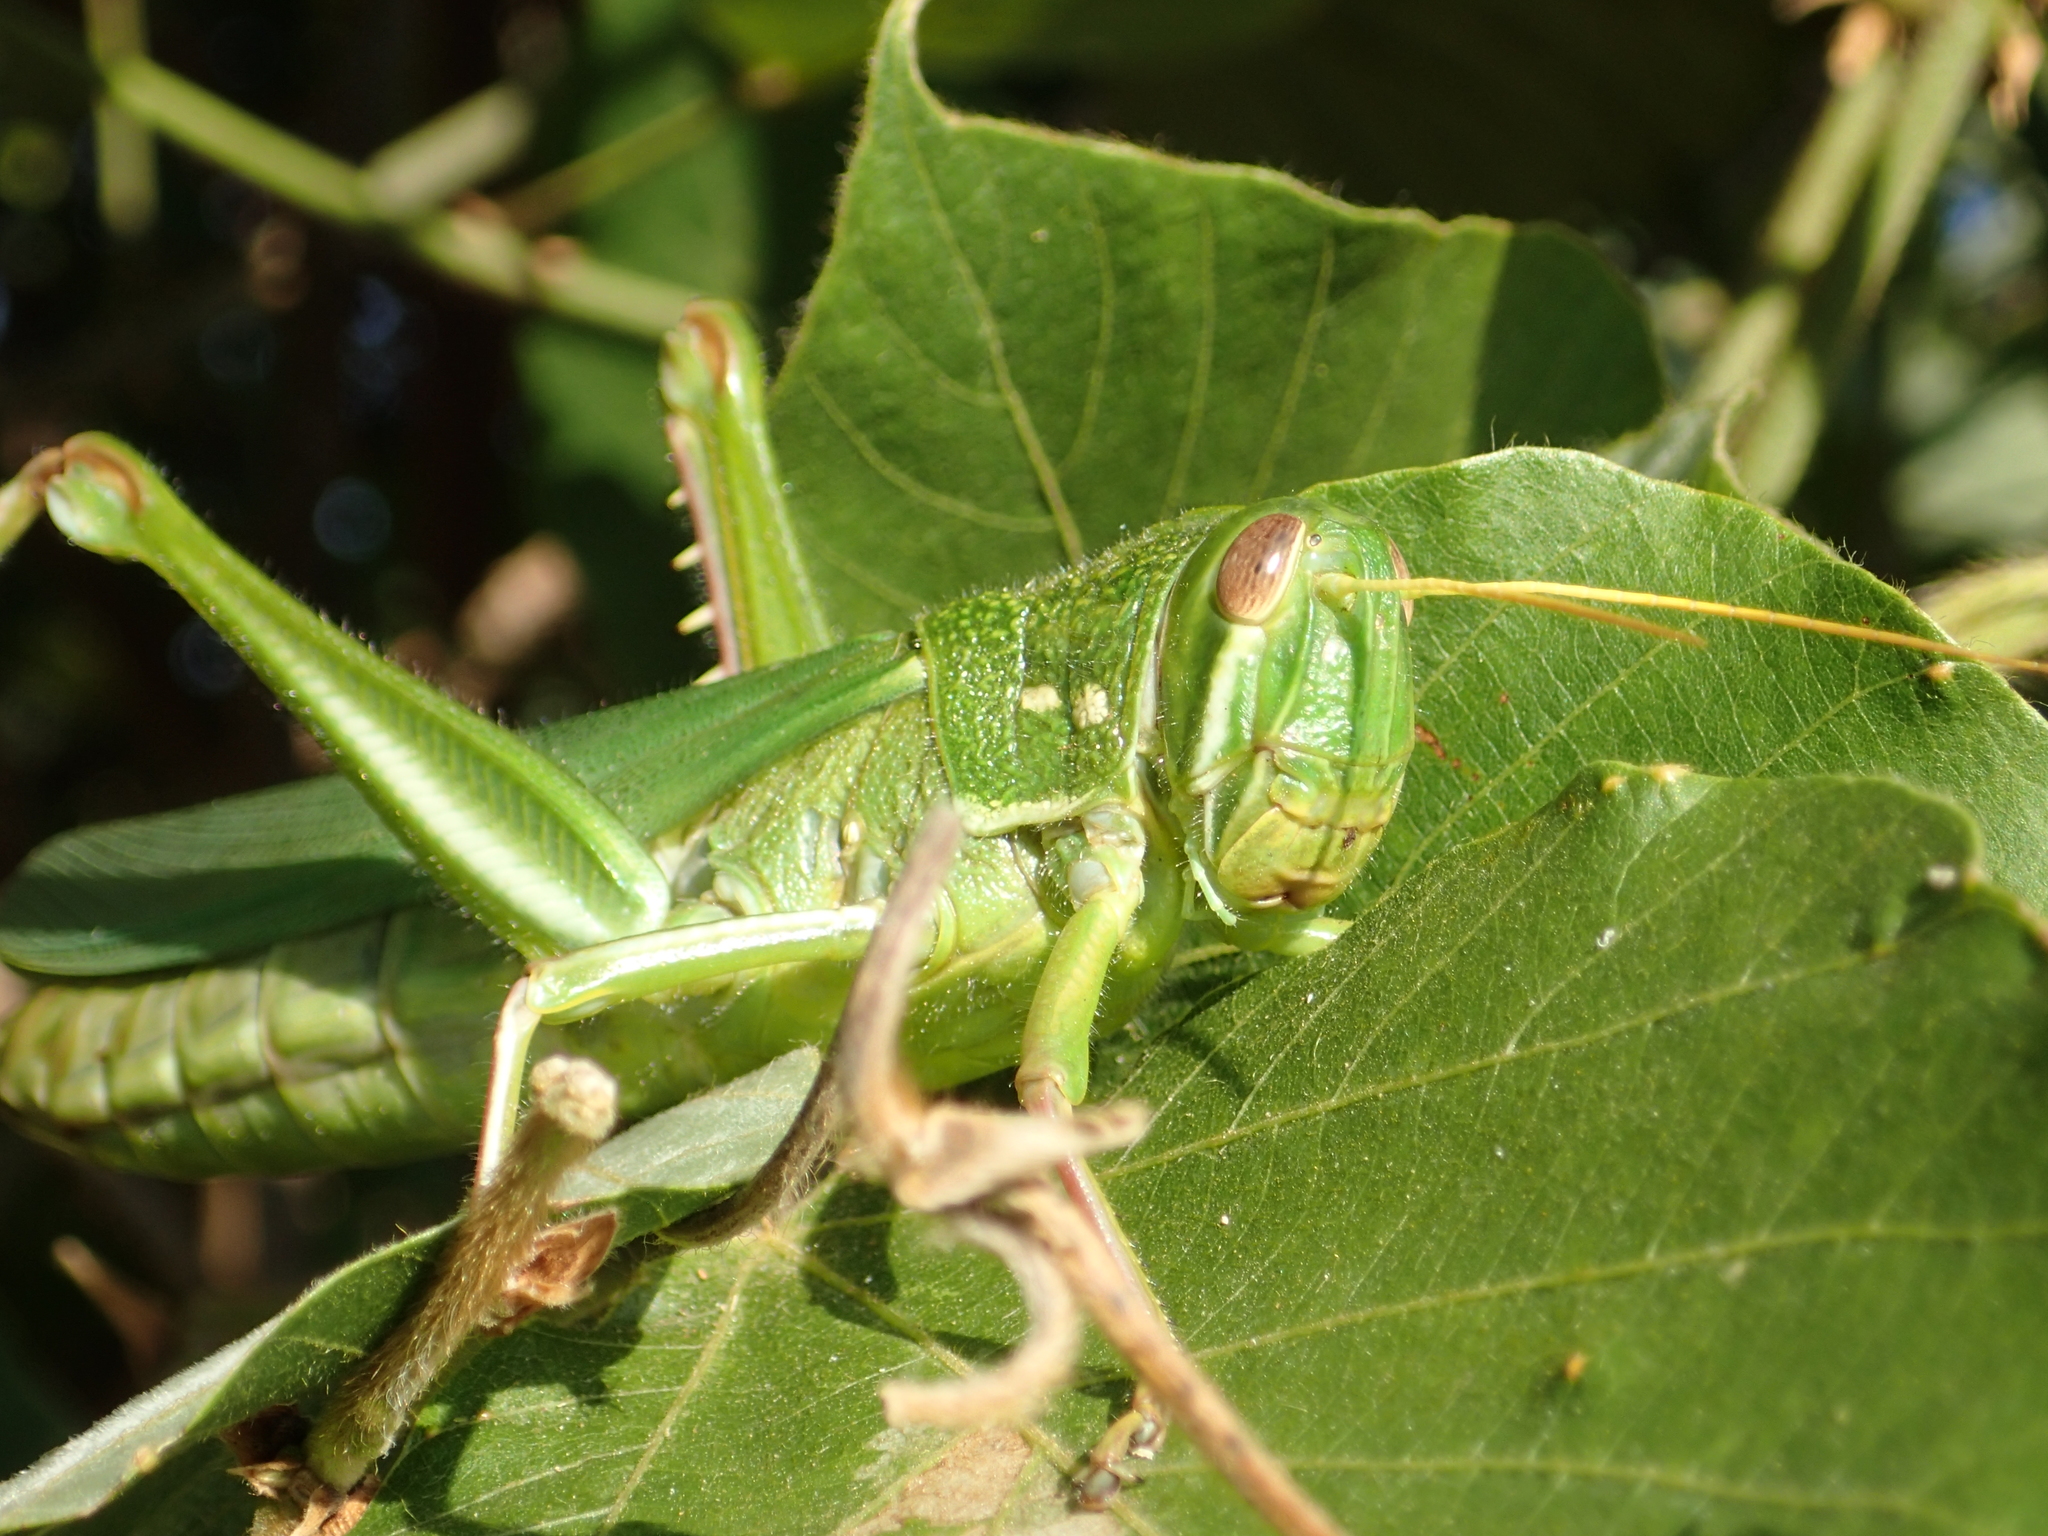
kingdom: Animalia
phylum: Arthropoda
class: Insecta
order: Orthoptera
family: Acrididae
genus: Chondracris
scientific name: Chondracris rosea
